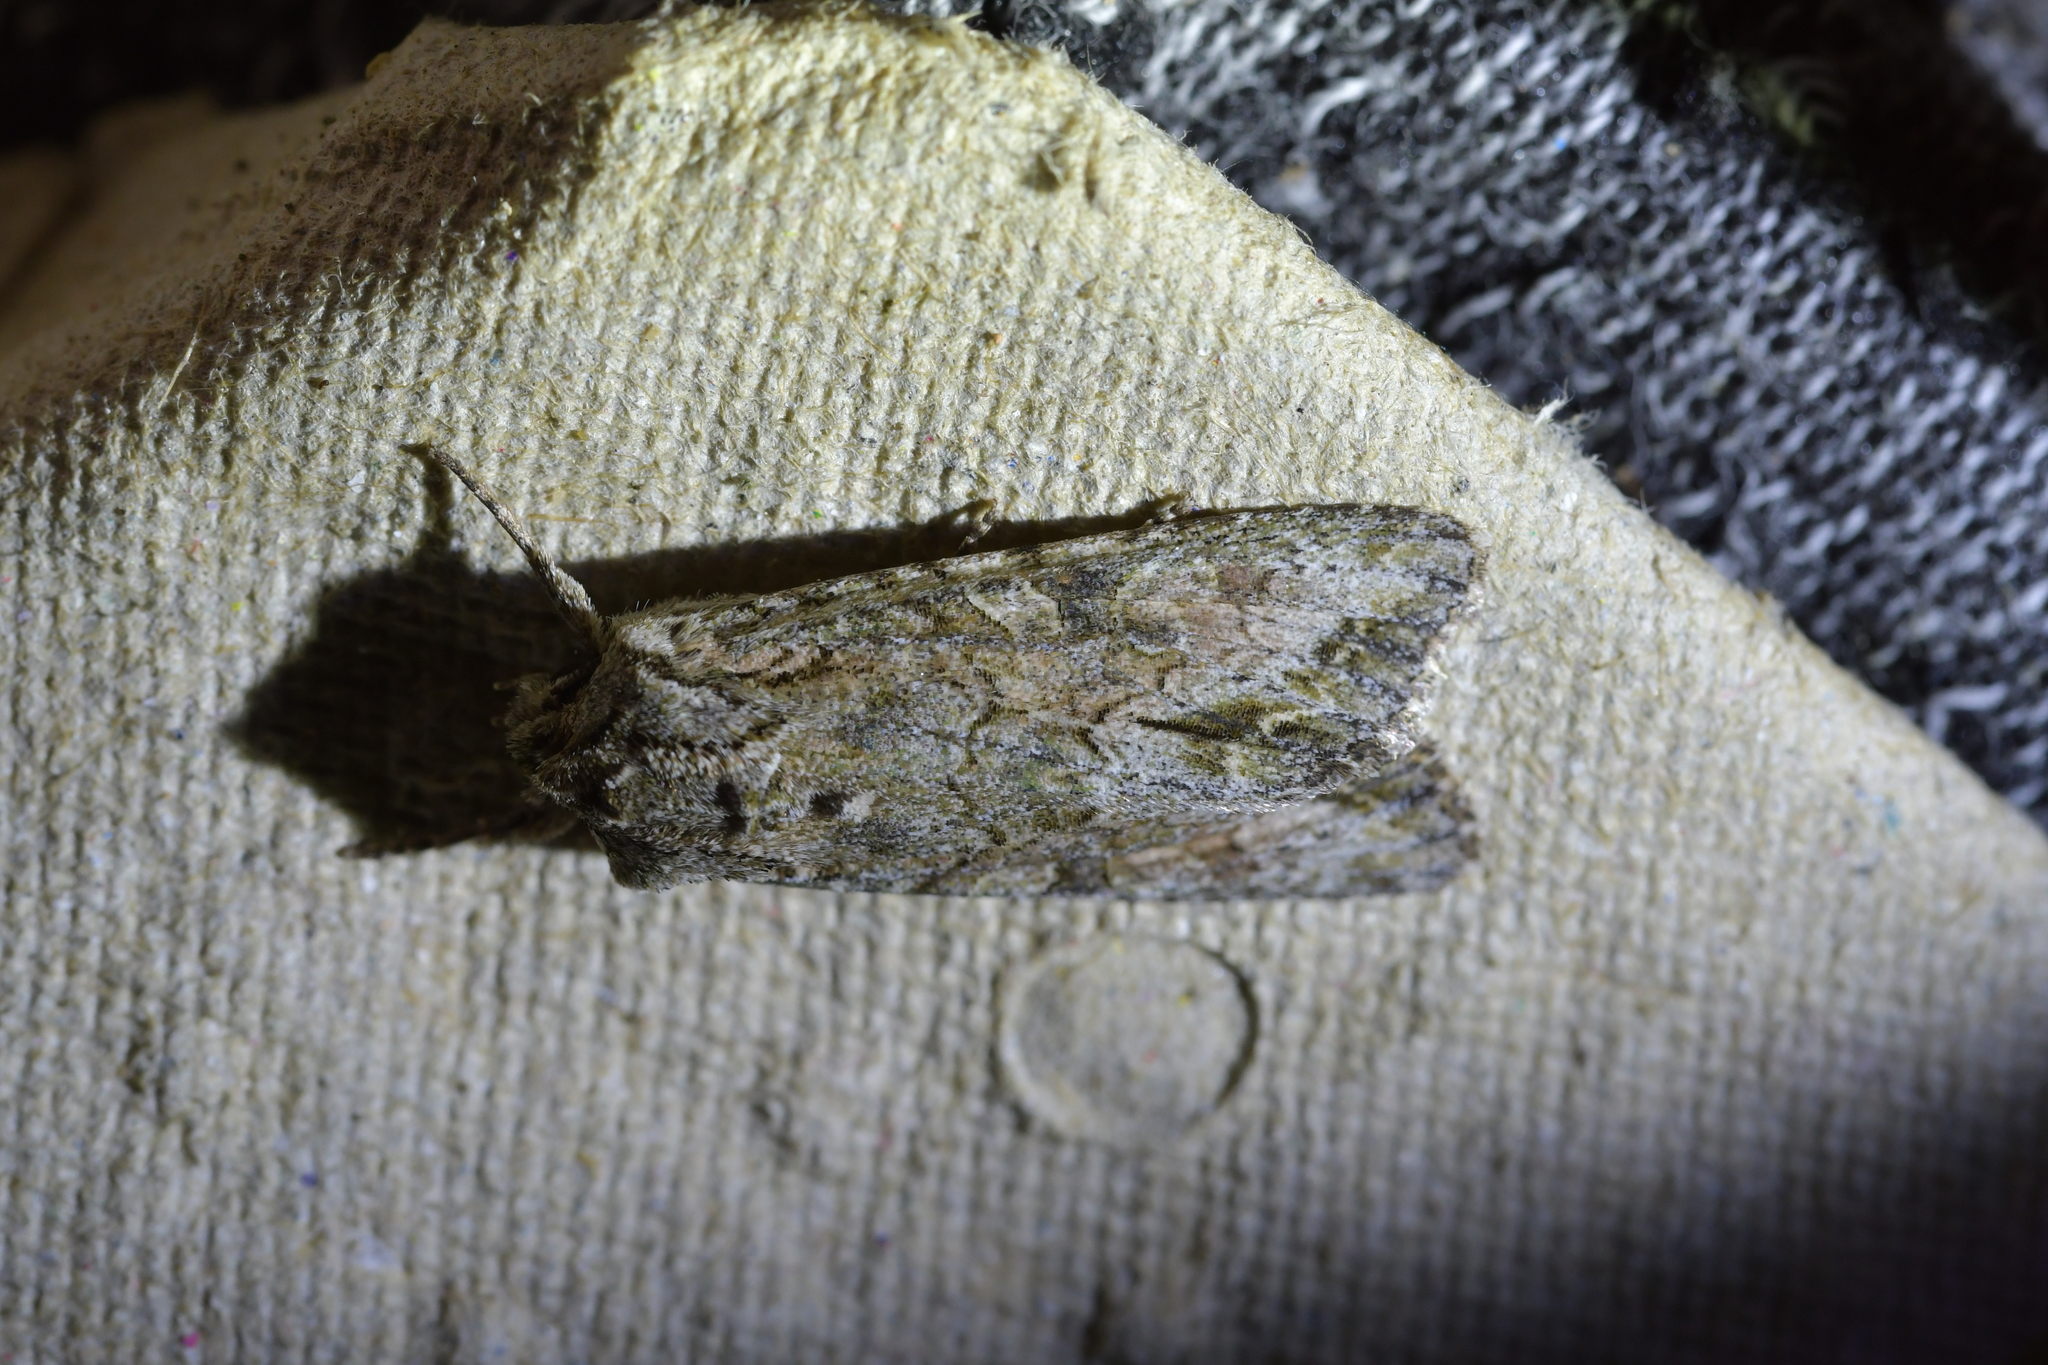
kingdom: Animalia
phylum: Arthropoda
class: Insecta
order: Lepidoptera
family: Noctuidae
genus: Ichneutica
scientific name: Ichneutica mutans
